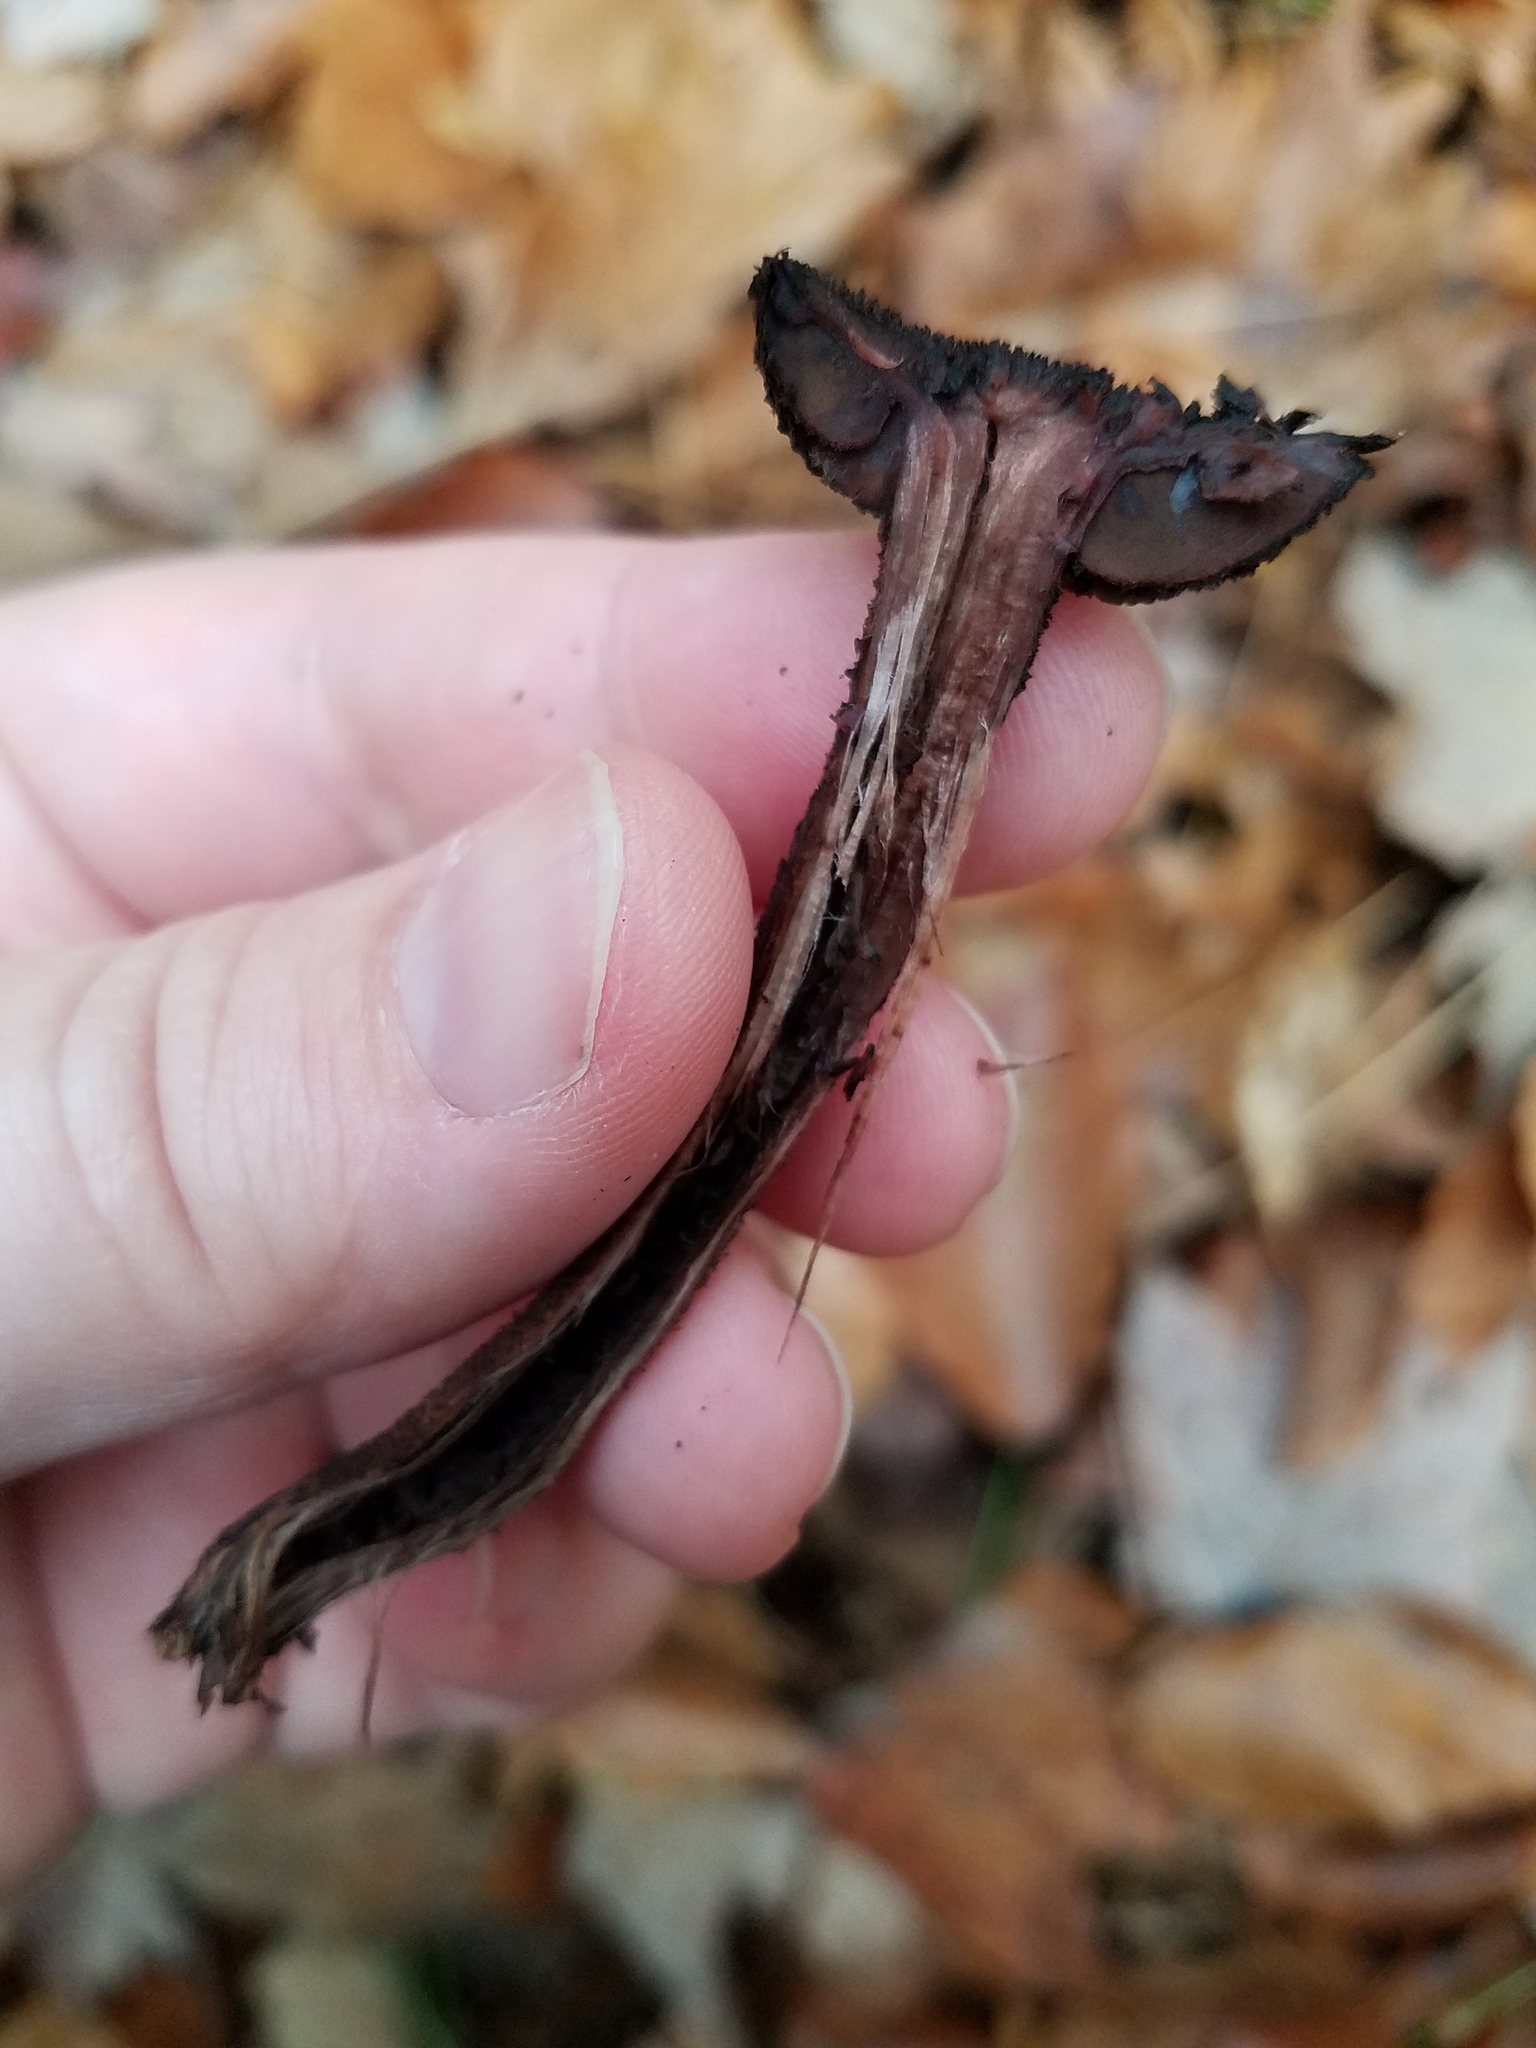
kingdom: Fungi
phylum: Basidiomycota
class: Agaricomycetes
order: Agaricales
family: Inocybaceae
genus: Inocybe
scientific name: Inocybe tahquamenonensis
